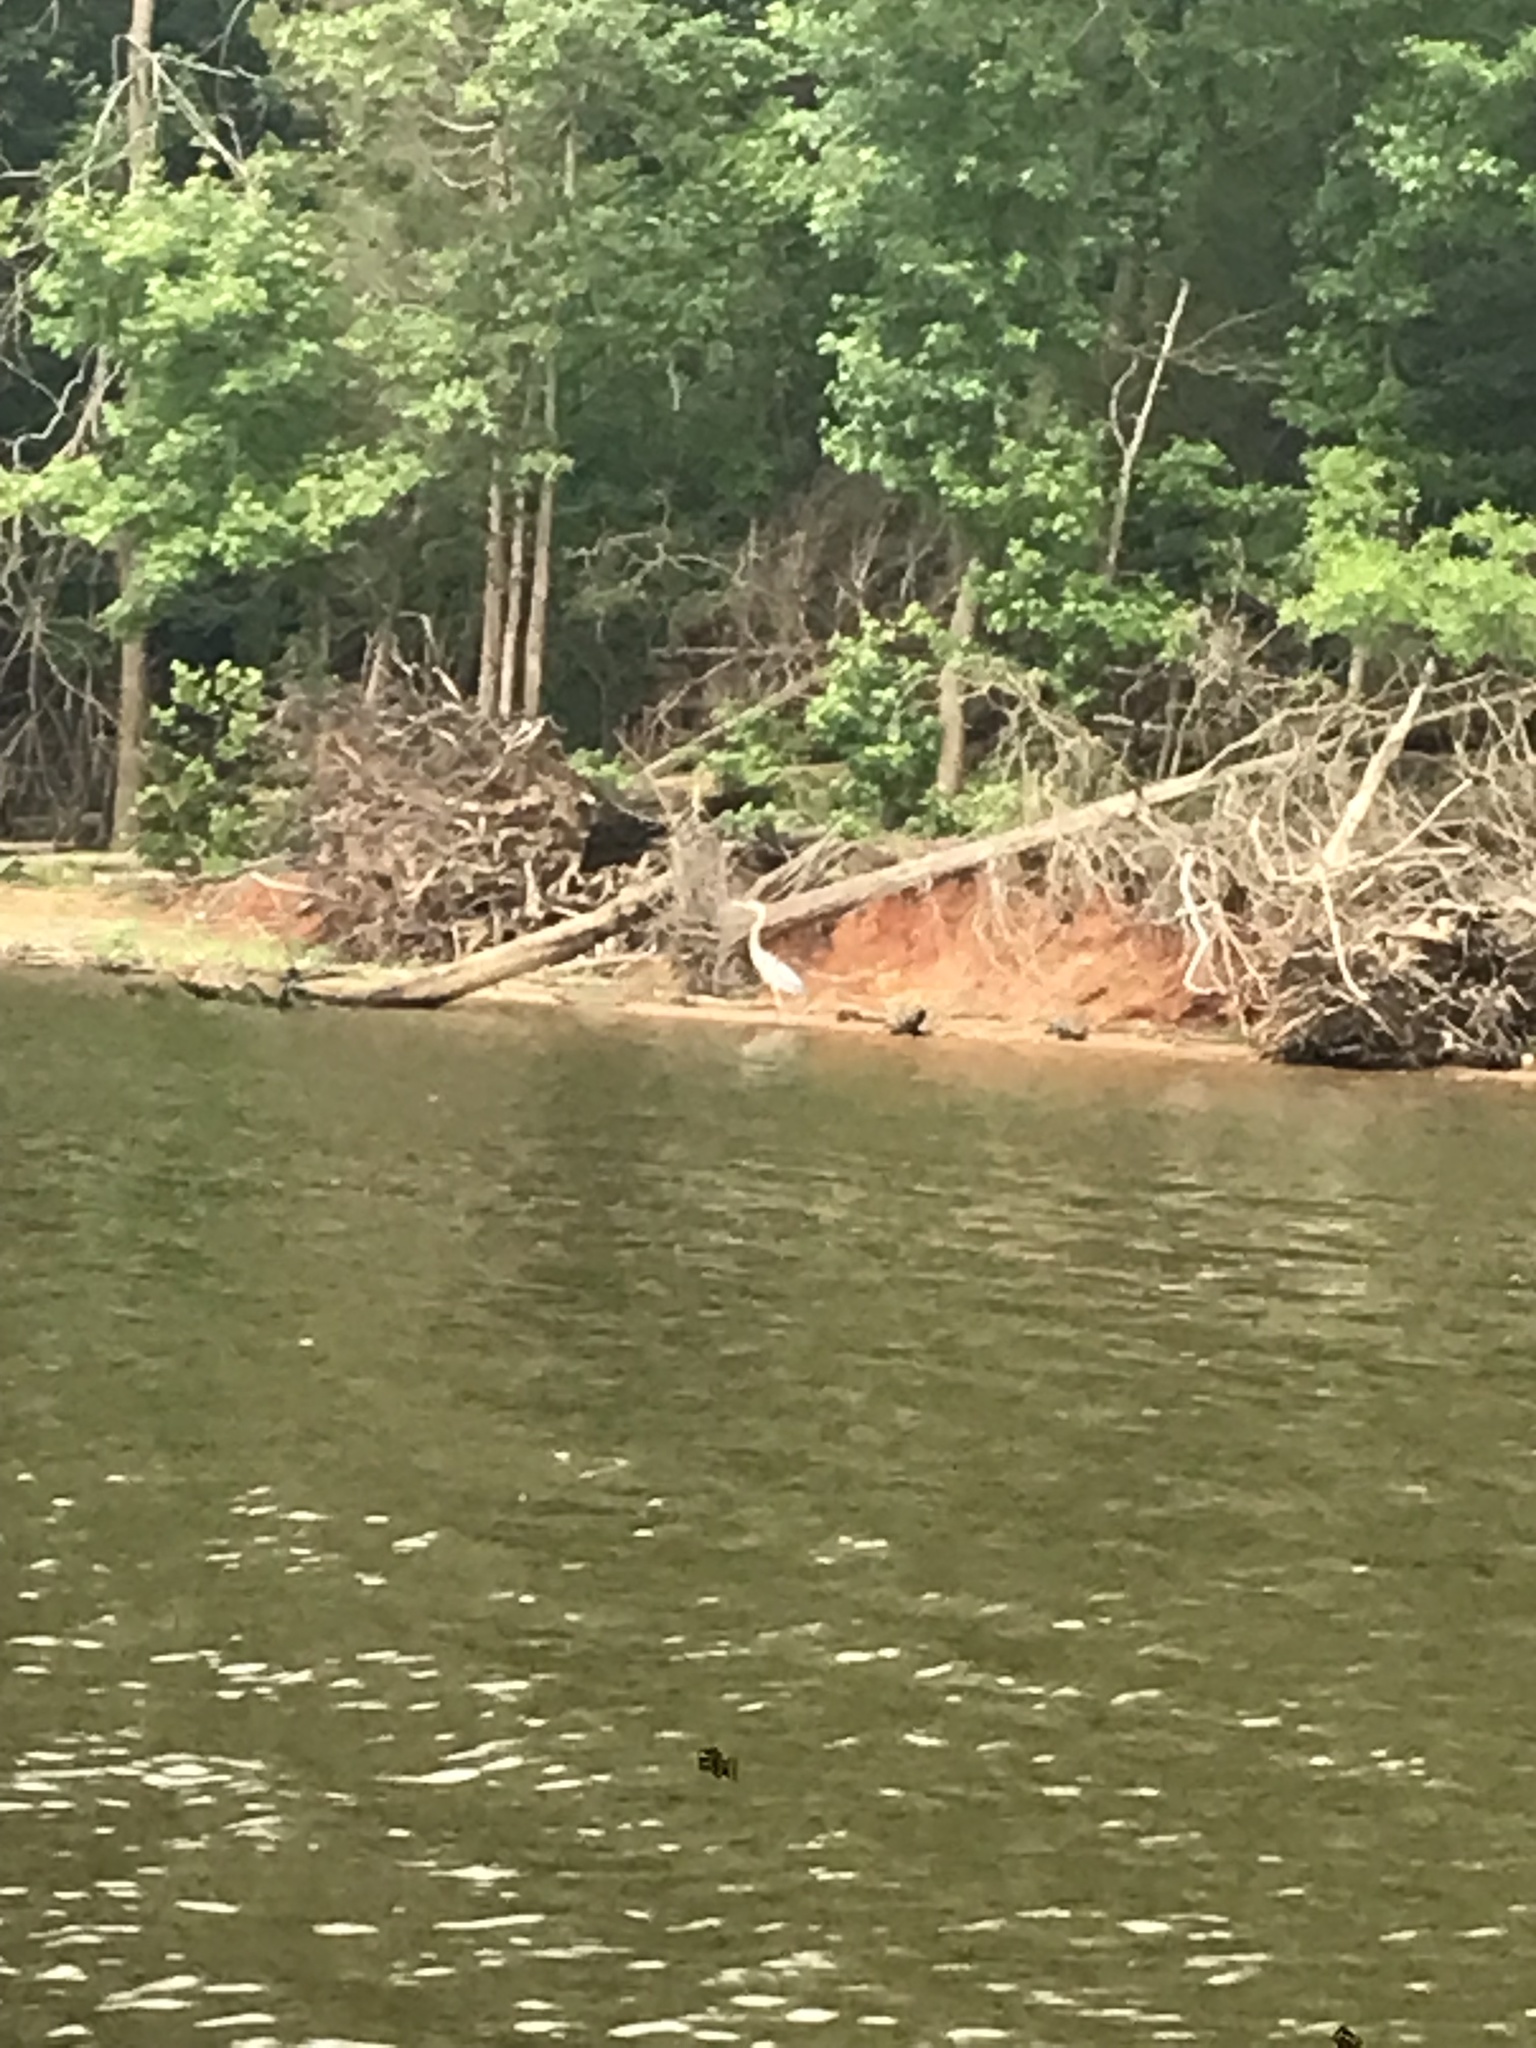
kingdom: Animalia
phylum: Chordata
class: Aves
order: Pelecaniformes
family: Ardeidae
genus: Ardea
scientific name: Ardea herodias
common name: Great blue heron
